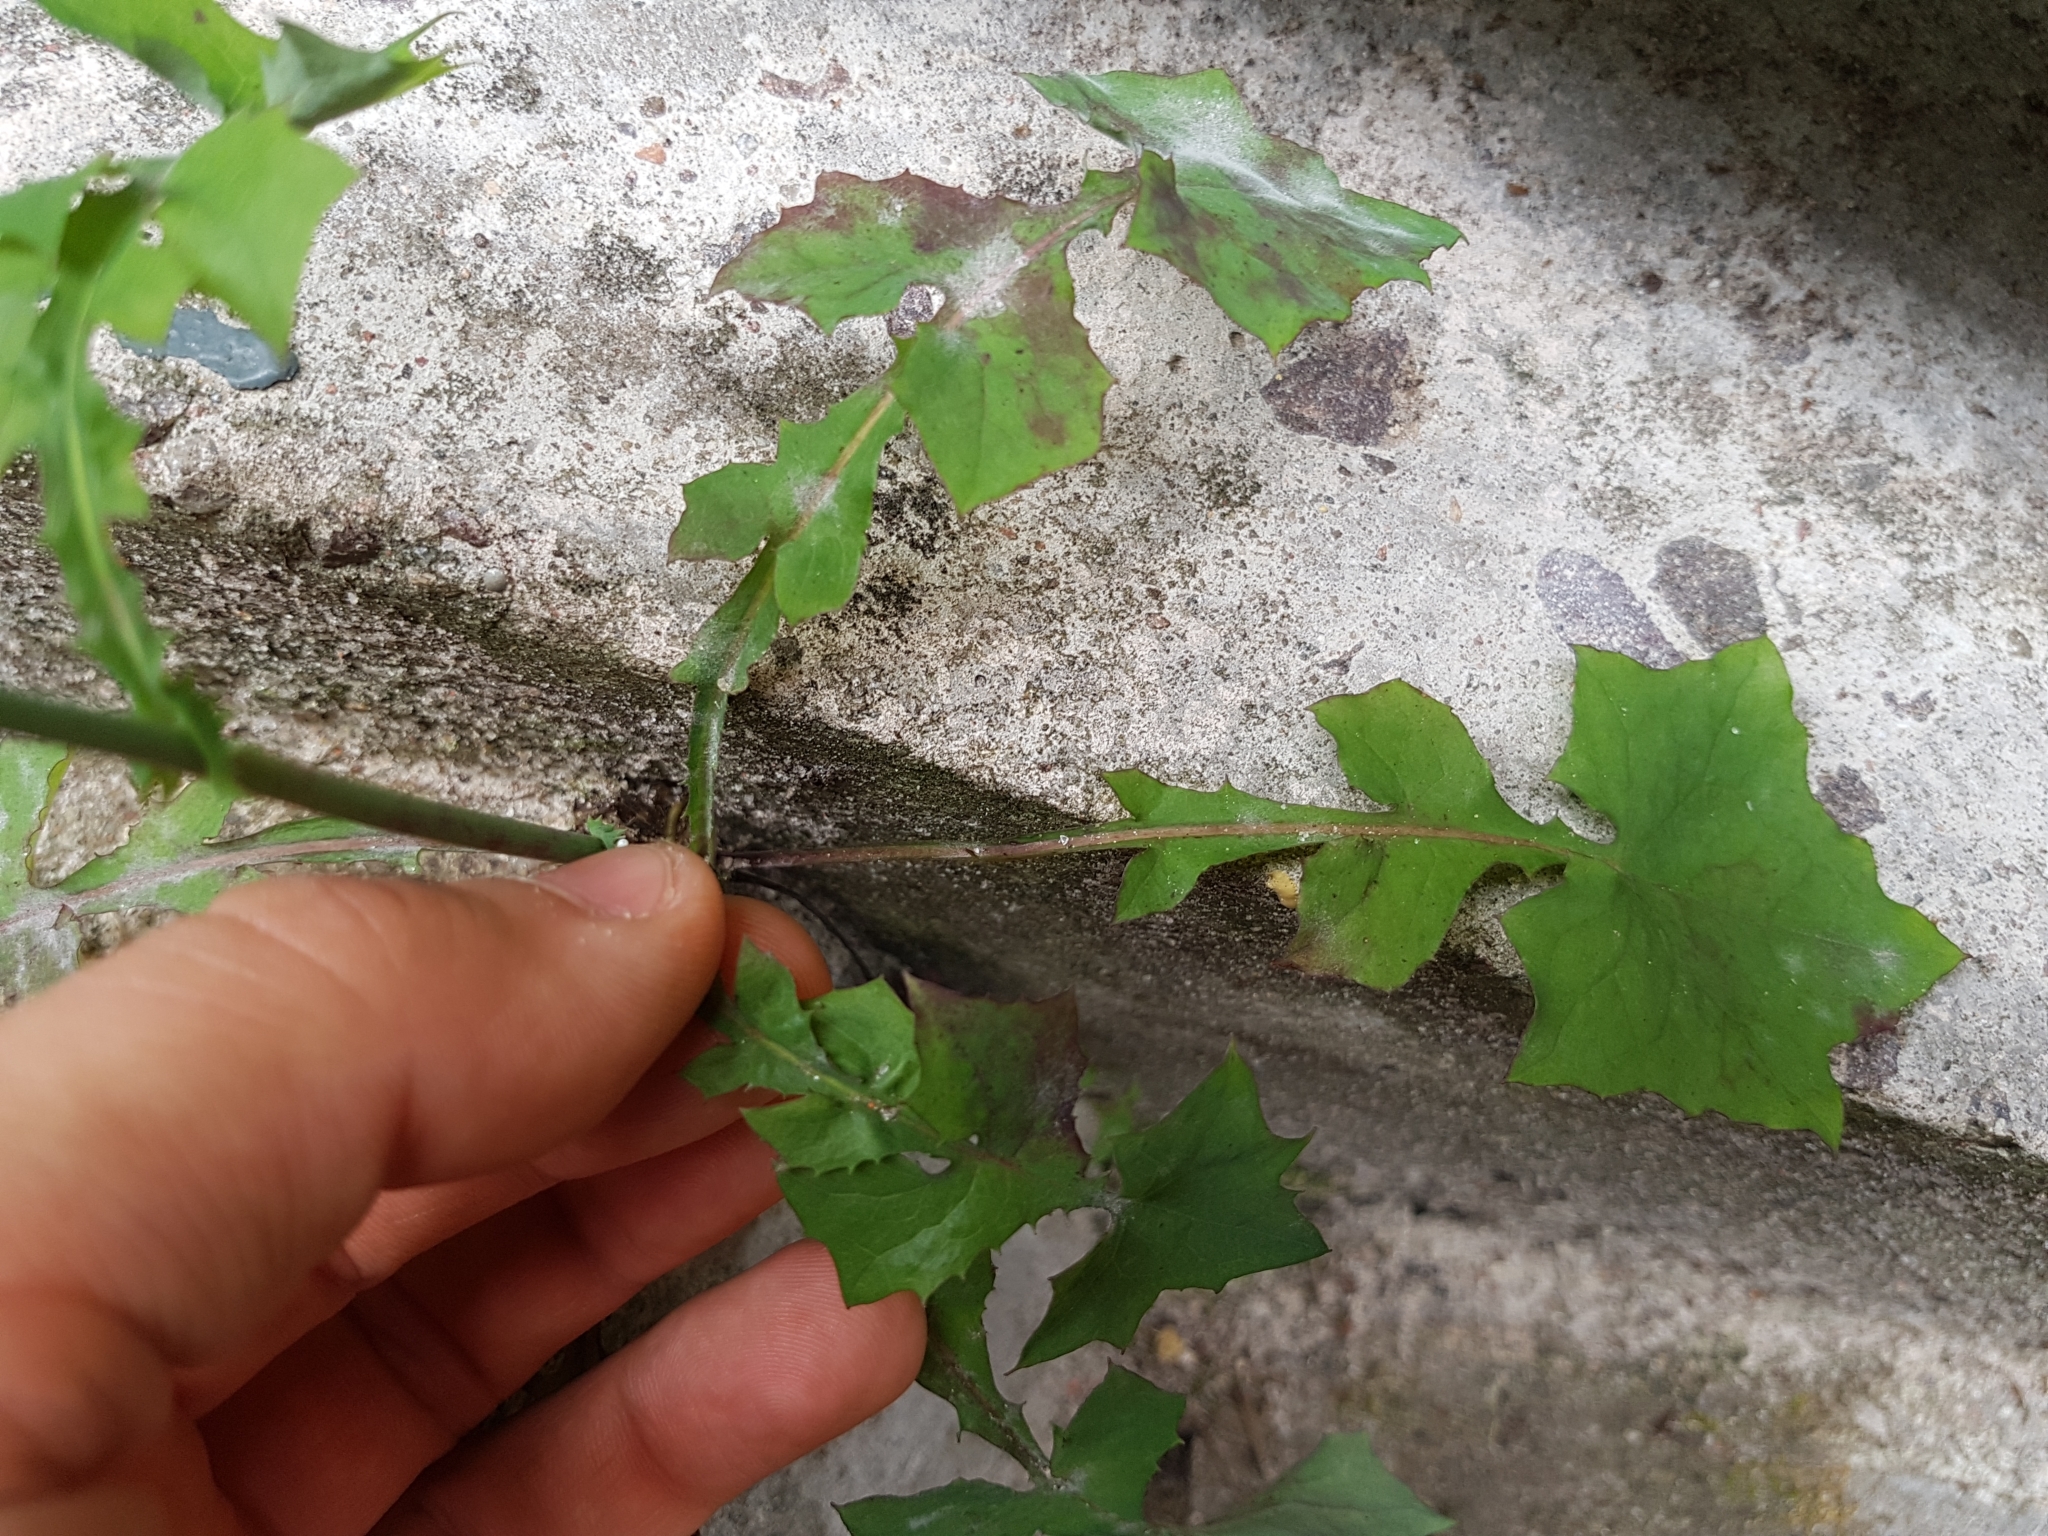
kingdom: Plantae
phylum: Tracheophyta
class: Magnoliopsida
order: Asterales
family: Asteraceae
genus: Mycelis
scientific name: Mycelis muralis
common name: Wall lettuce
